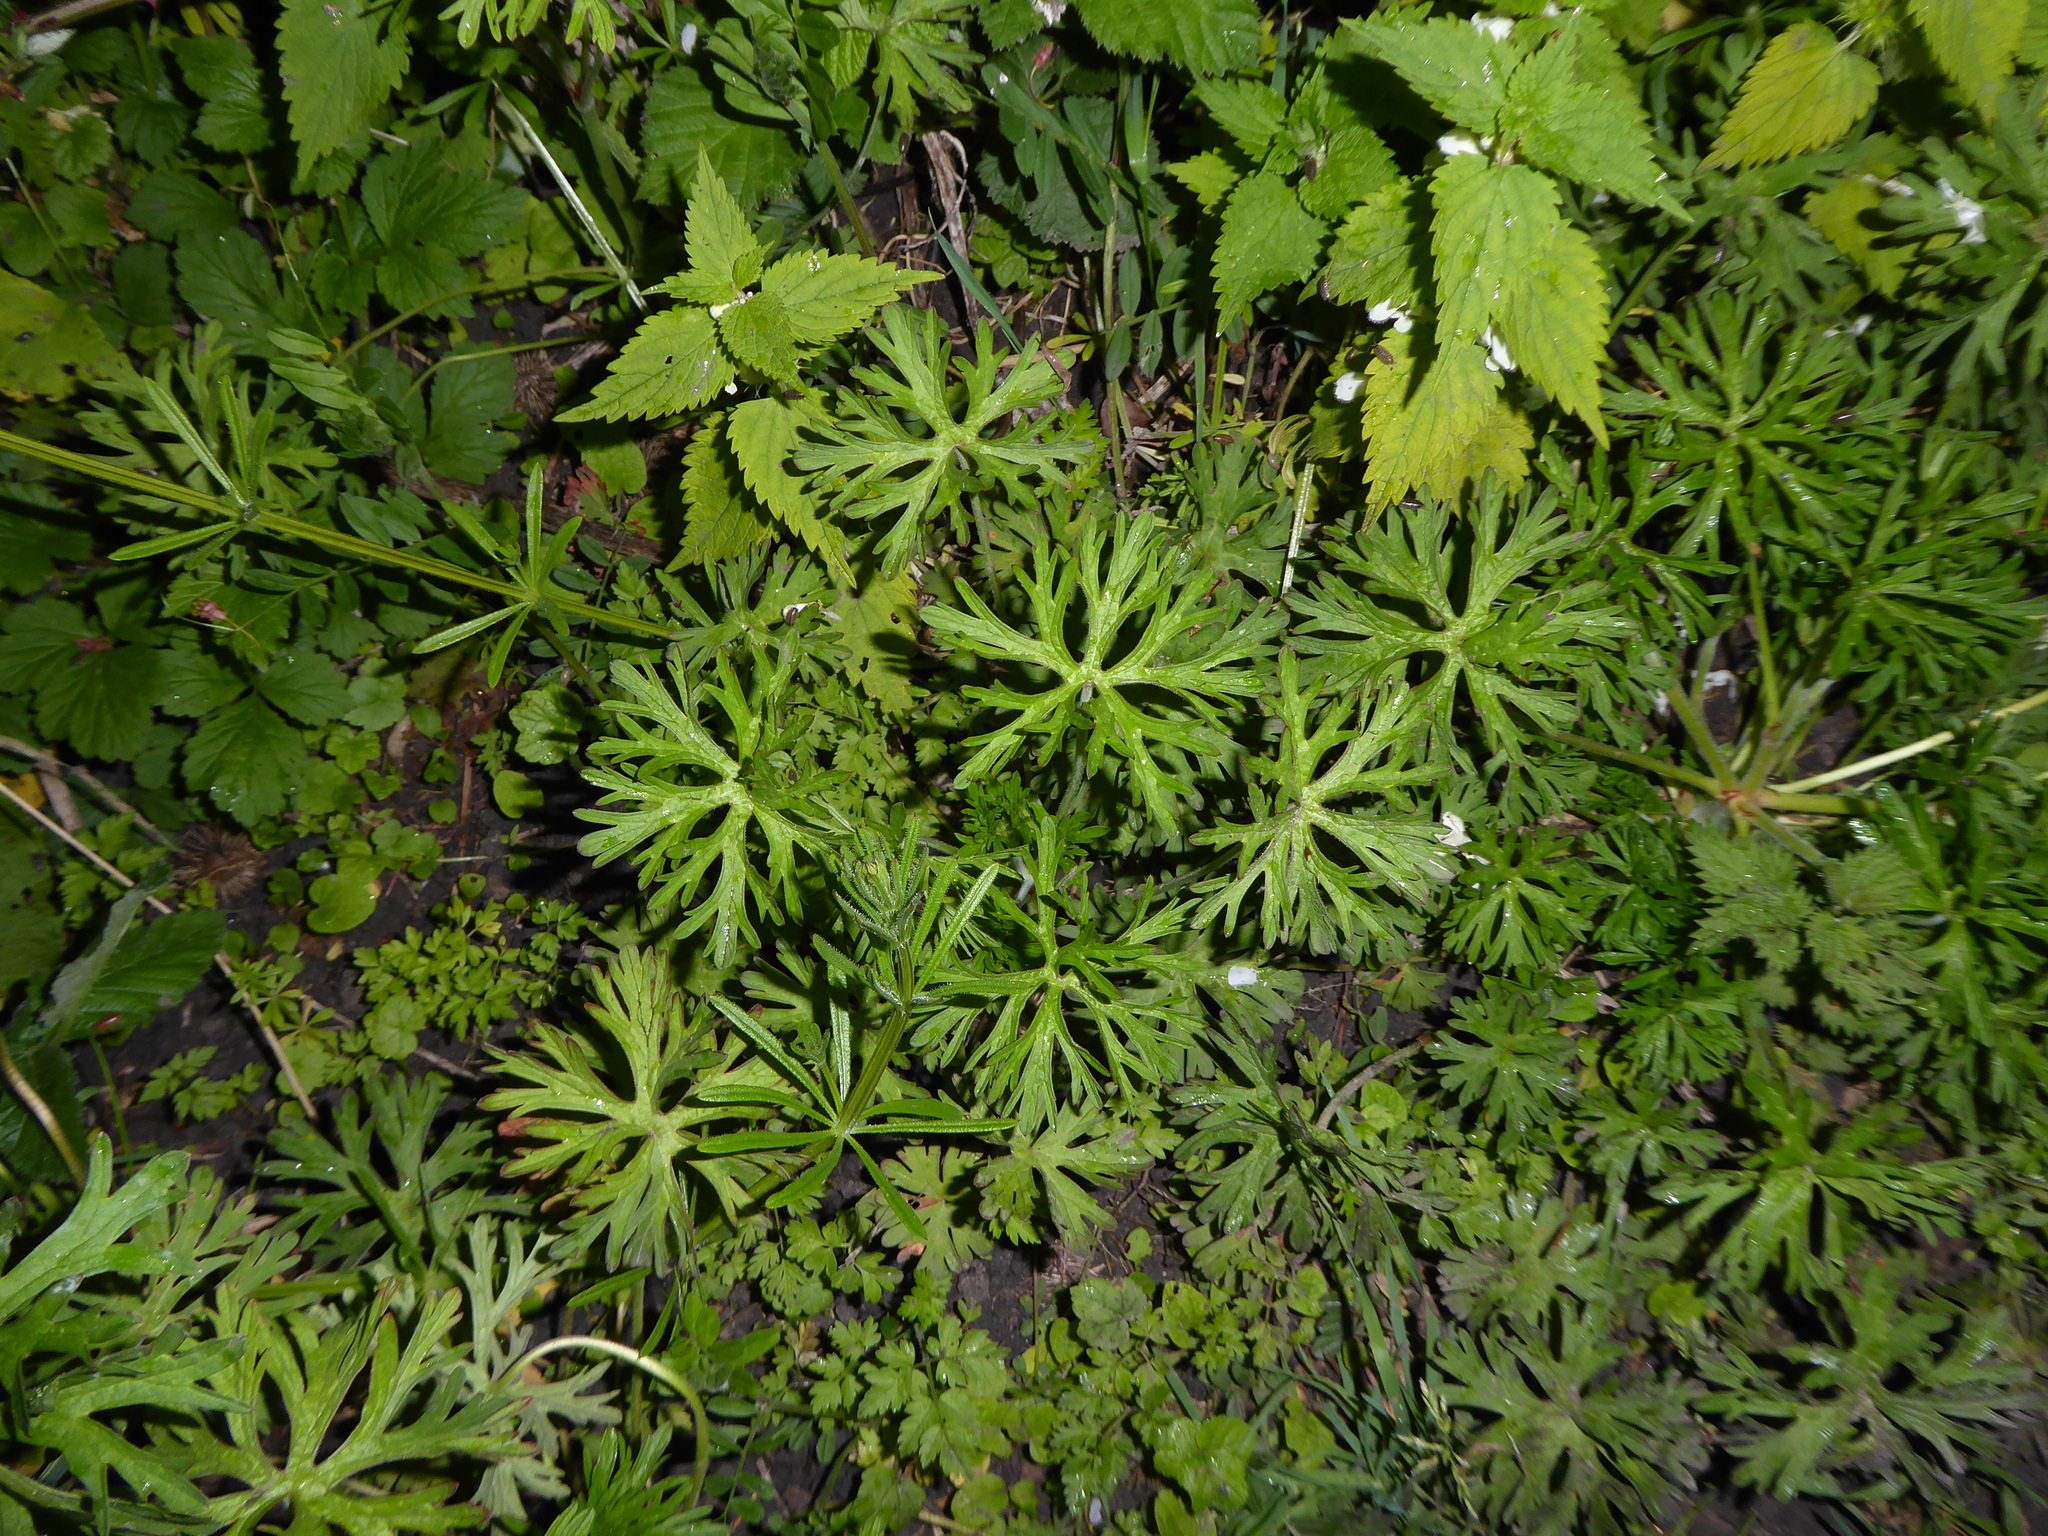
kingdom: Plantae
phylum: Tracheophyta
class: Magnoliopsida
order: Geraniales
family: Geraniaceae
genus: Geranium
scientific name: Geranium dissectum
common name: Cut-leaved crane's-bill
